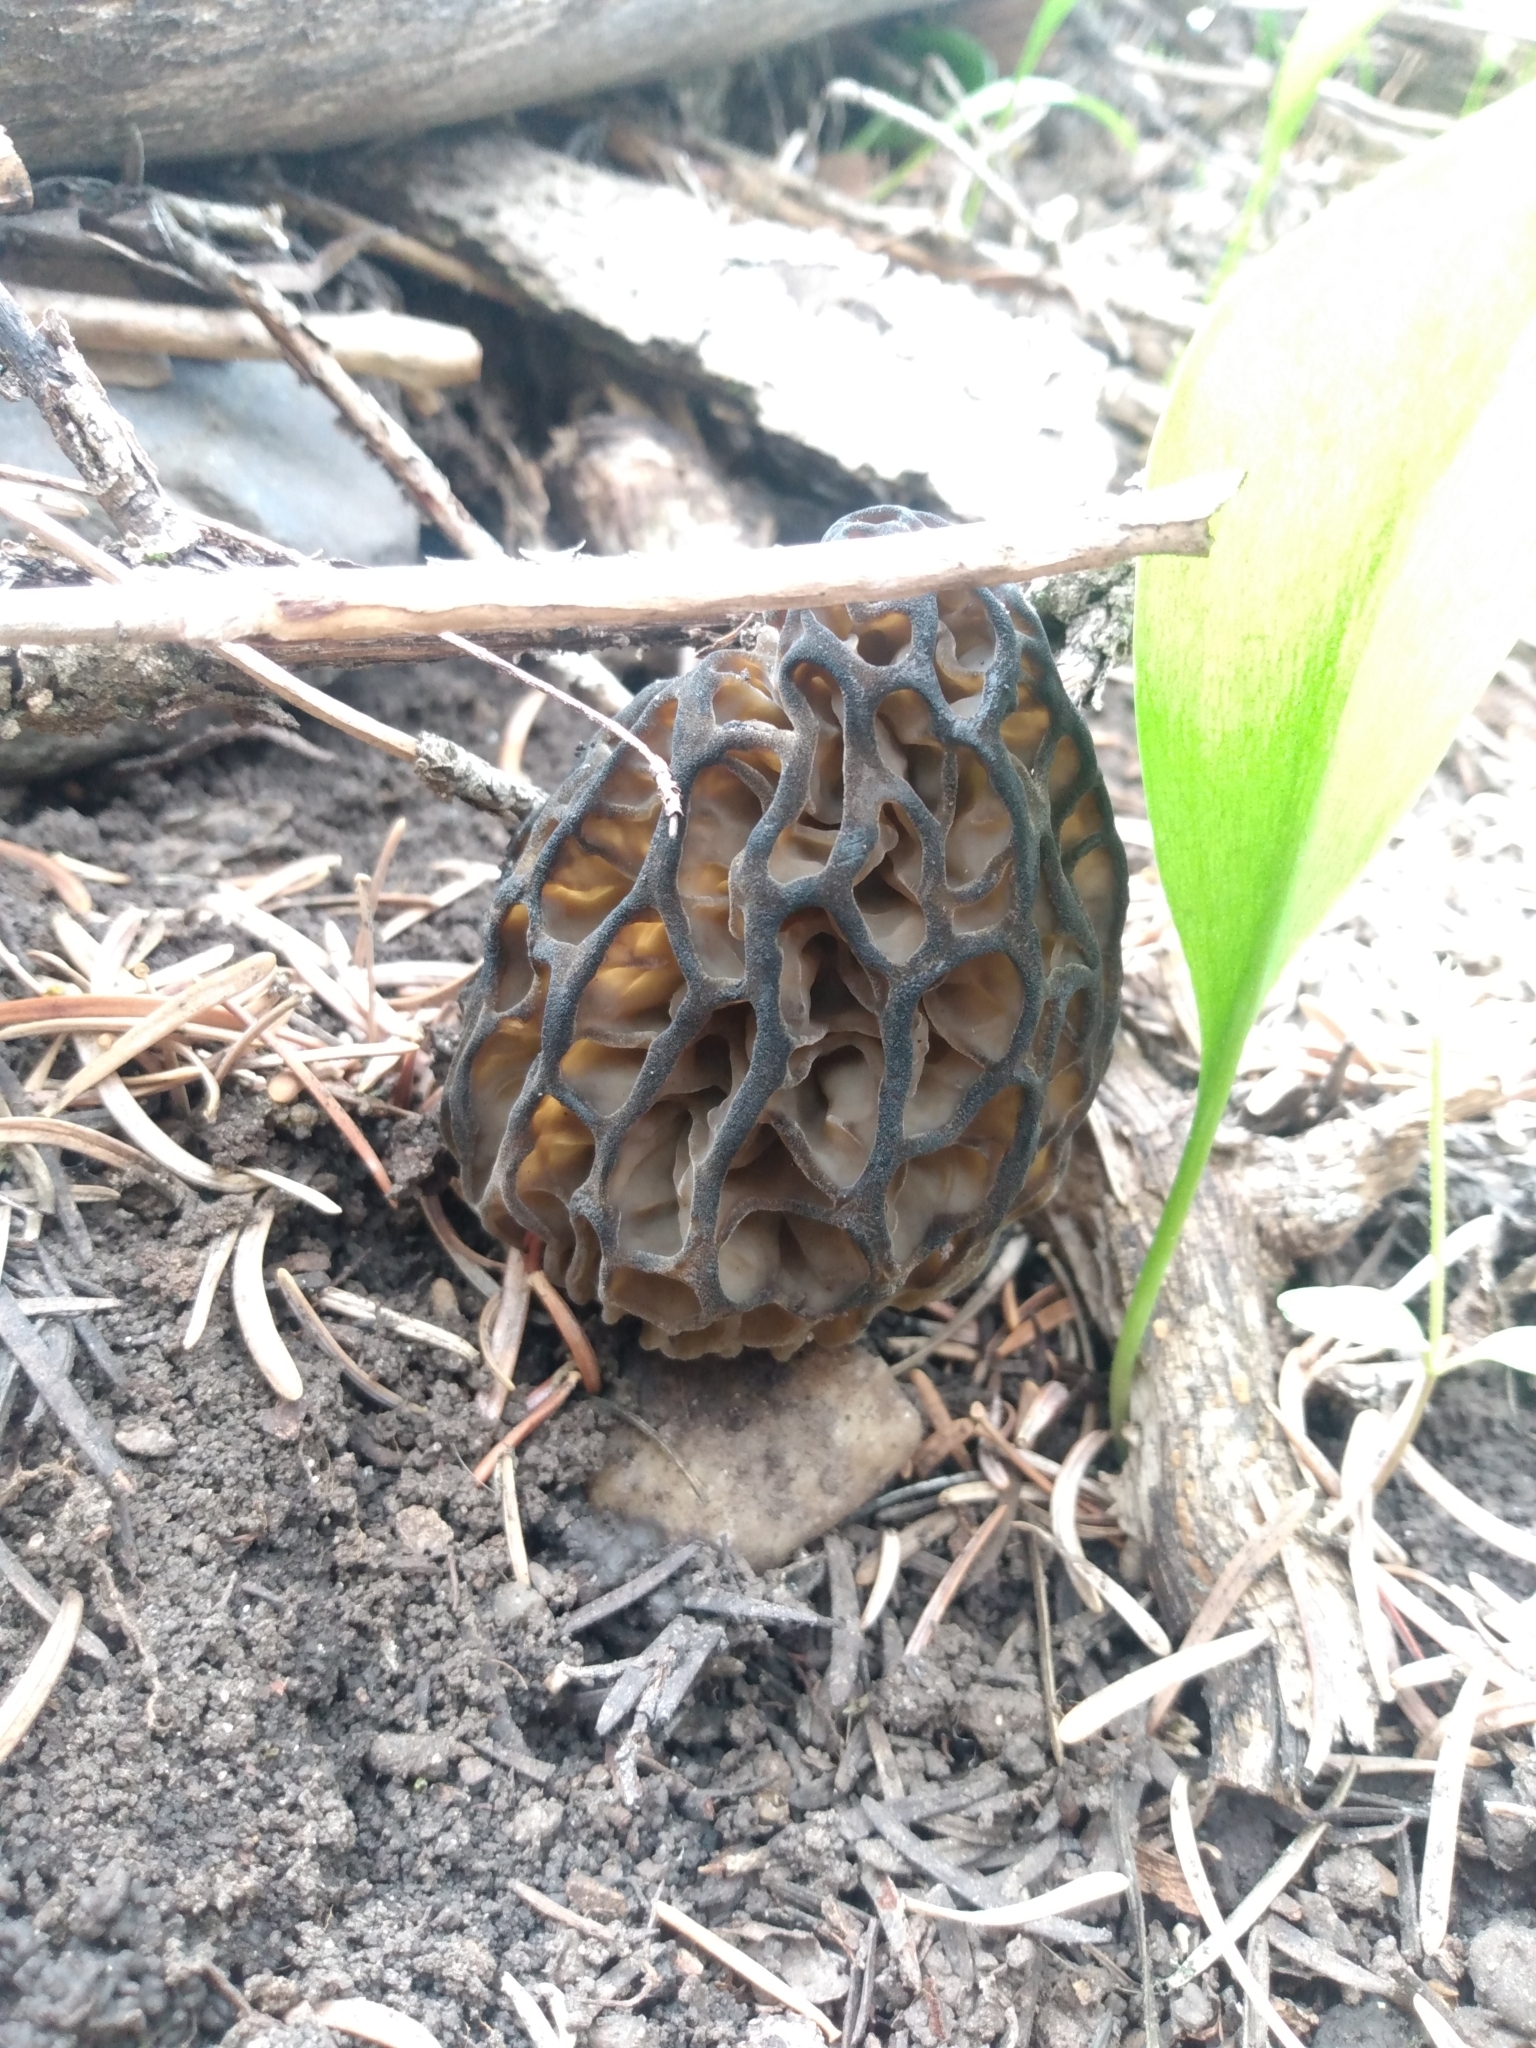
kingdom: Fungi
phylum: Ascomycota
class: Pezizomycetes
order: Pezizales
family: Morchellaceae
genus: Morchella
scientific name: Morchella snyderi
